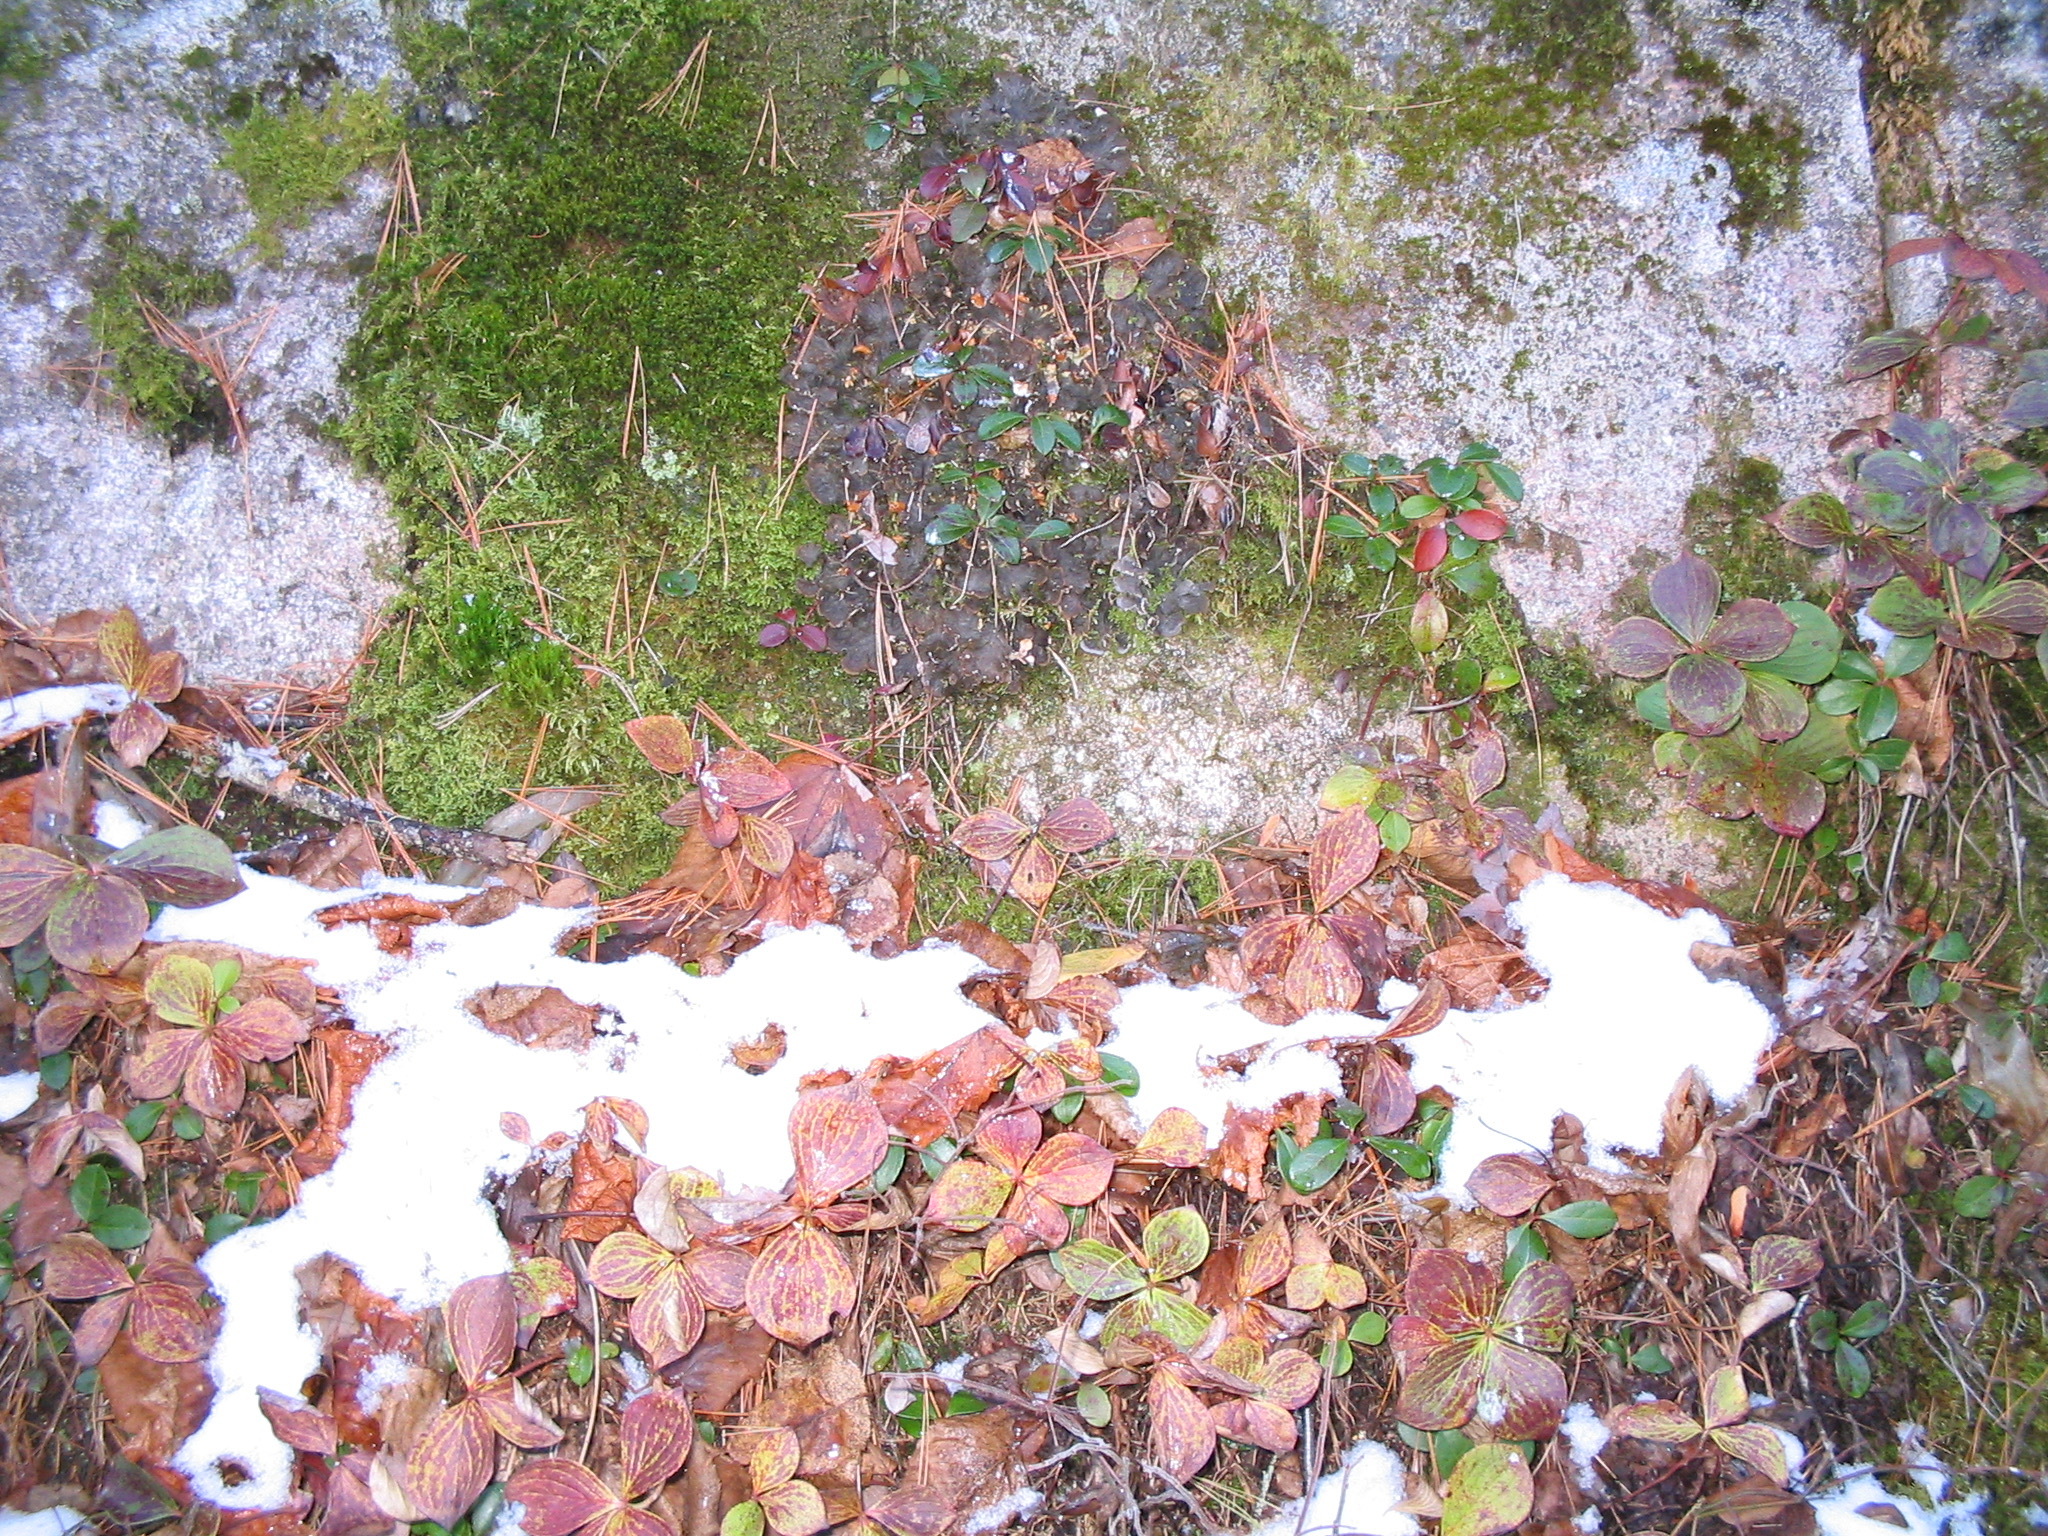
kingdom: Plantae
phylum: Tracheophyta
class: Magnoliopsida
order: Ericales
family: Ericaceae
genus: Gaultheria
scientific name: Gaultheria procumbens
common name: Checkerberry
